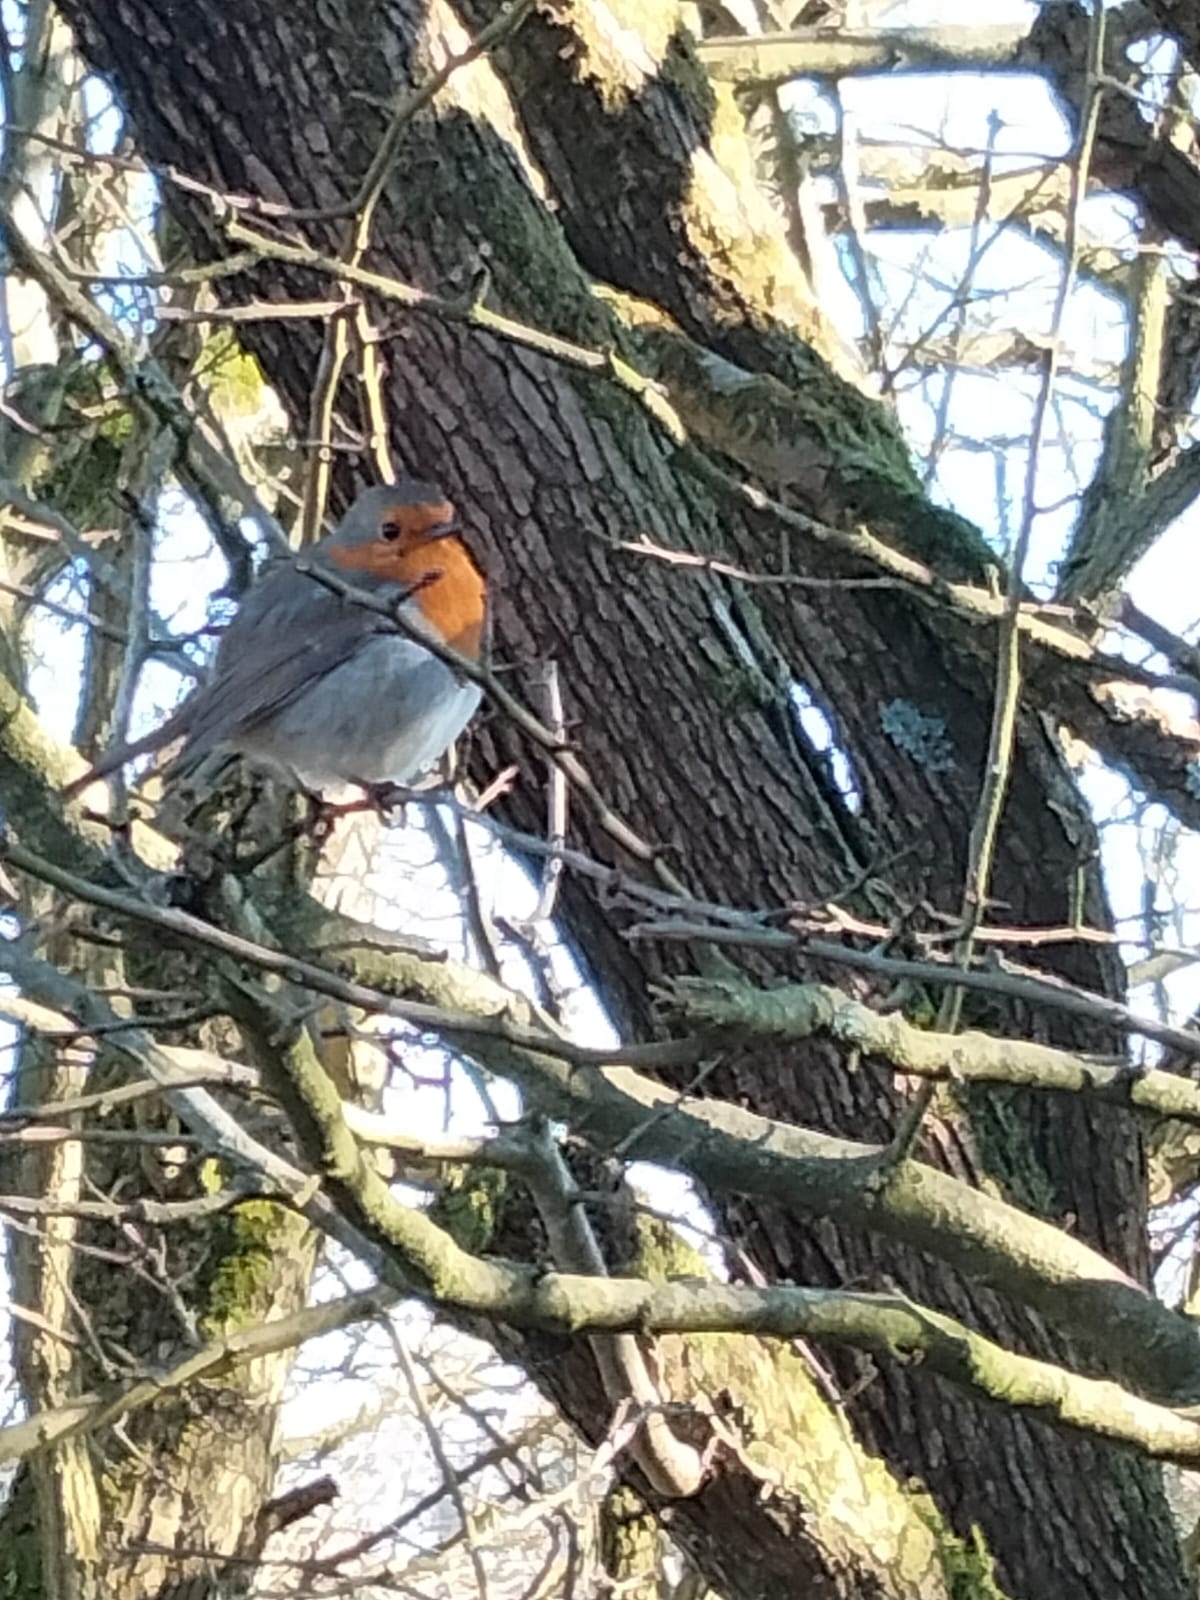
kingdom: Animalia
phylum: Chordata
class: Aves
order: Passeriformes
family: Muscicapidae
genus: Erithacus
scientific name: Erithacus rubecula
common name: European robin
